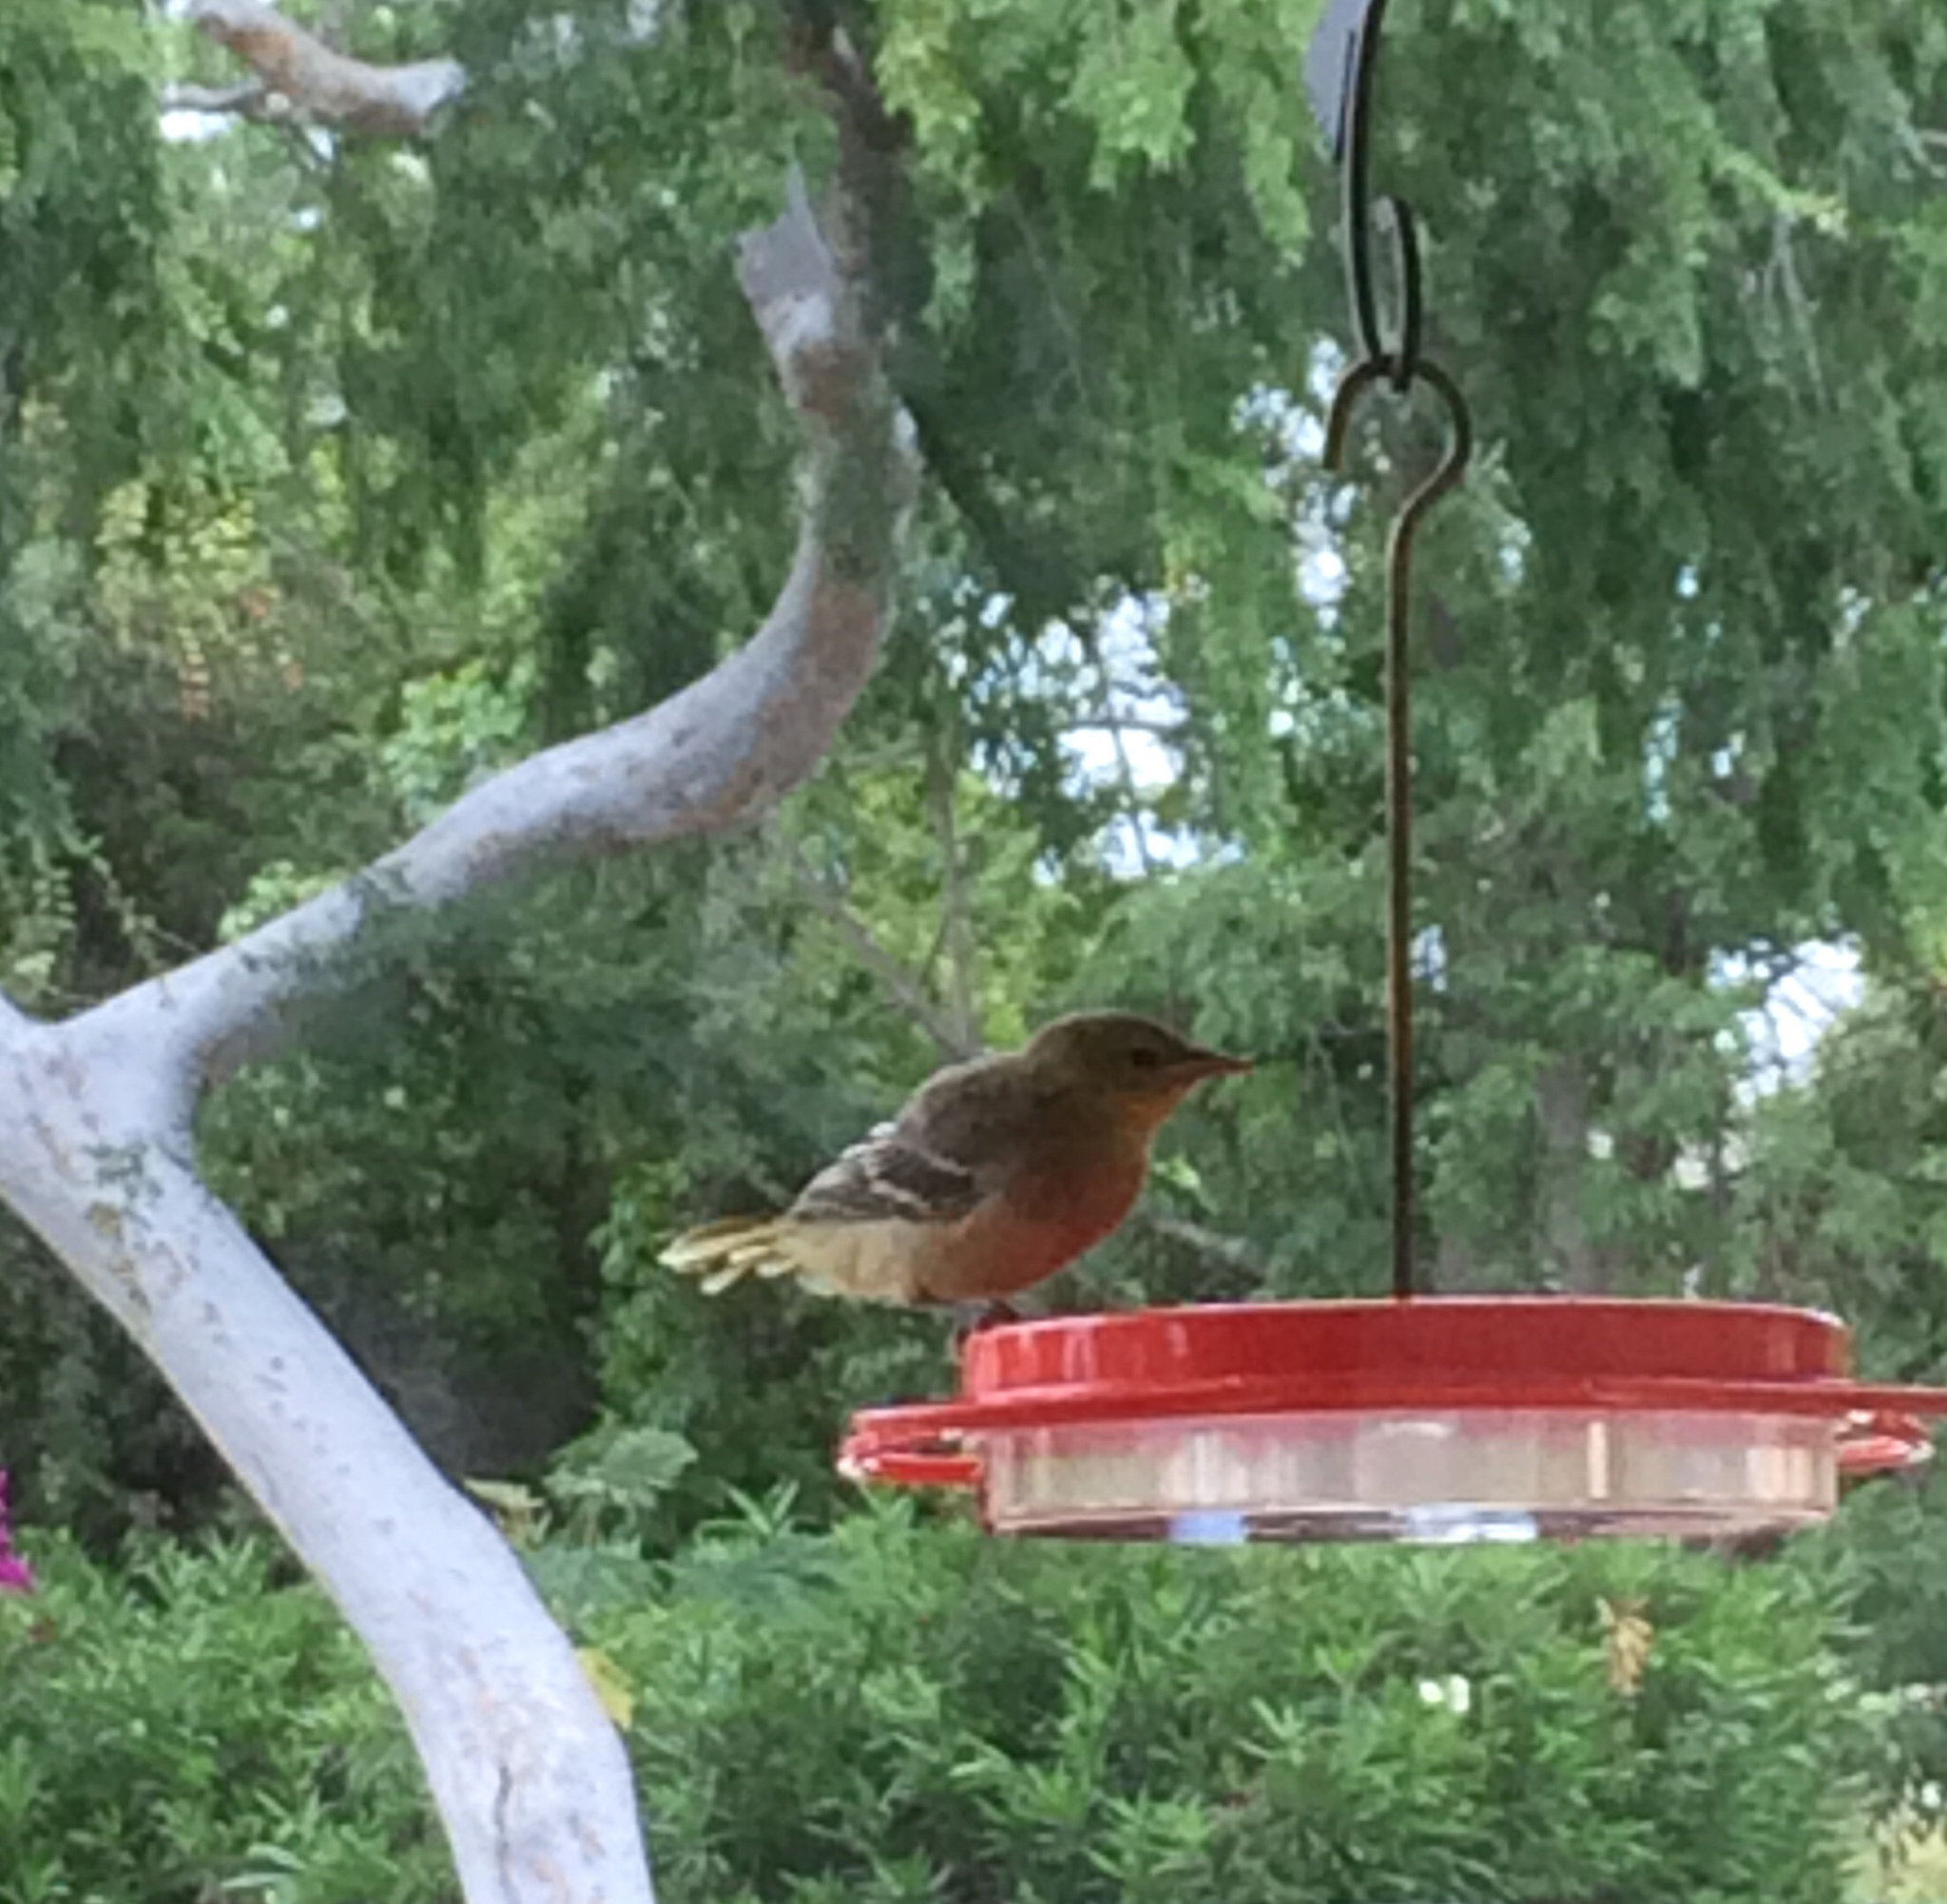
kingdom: Animalia
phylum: Chordata
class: Aves
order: Passeriformes
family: Icteridae
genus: Icterus
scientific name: Icterus cucullatus
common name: Hooded oriole
